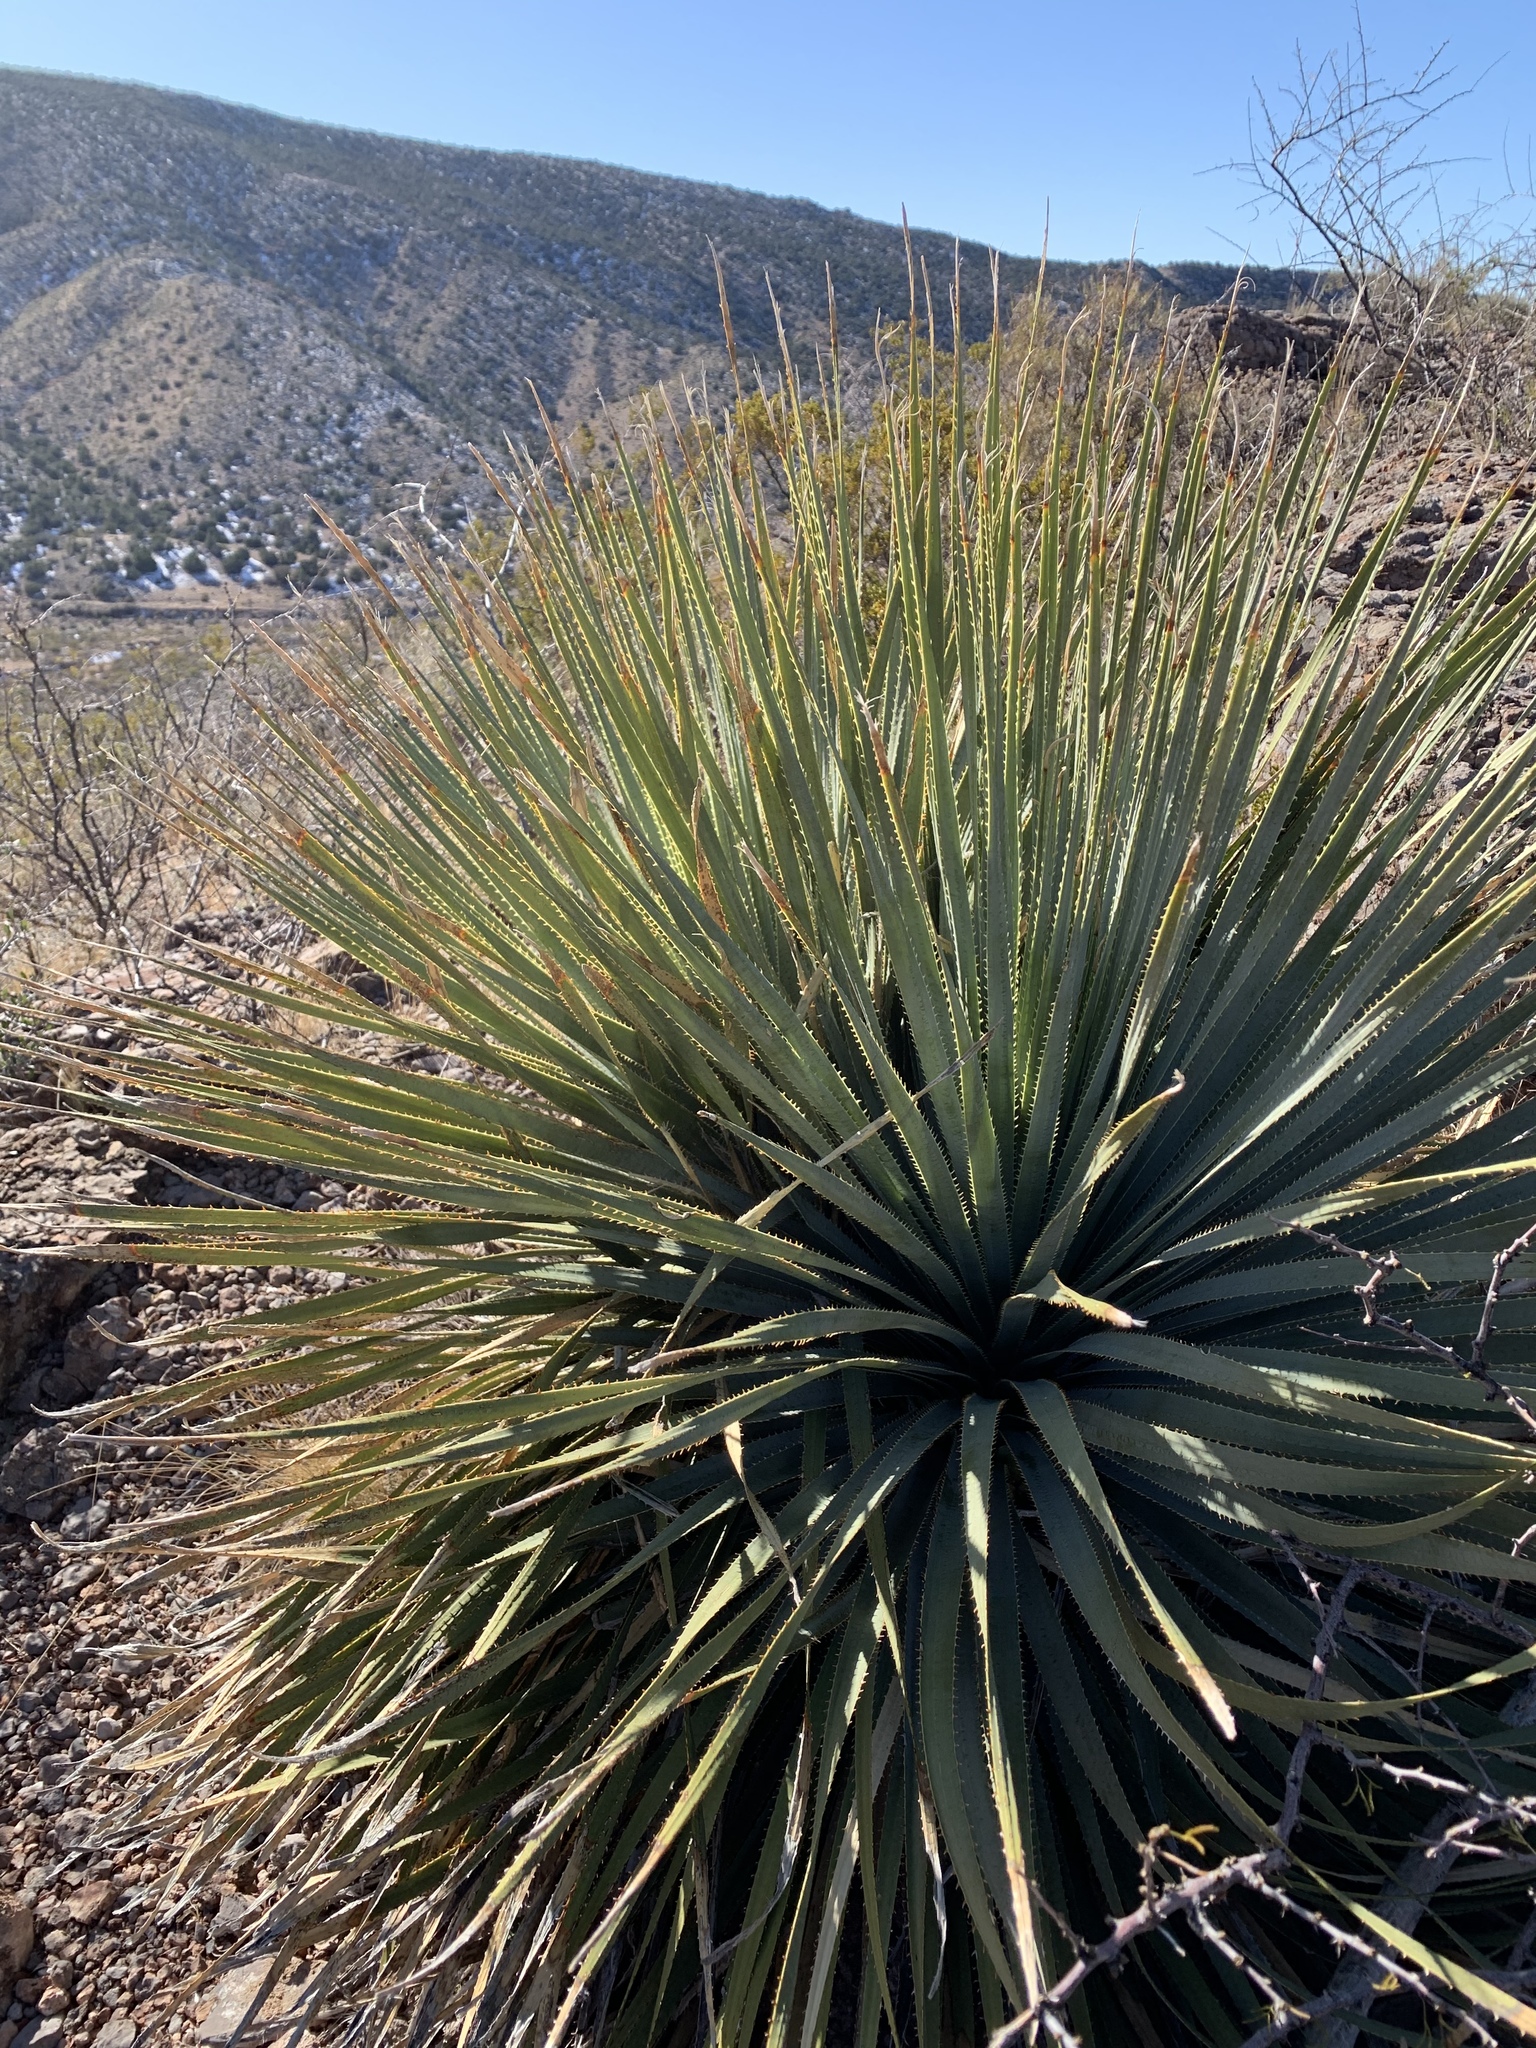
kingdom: Plantae
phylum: Tracheophyta
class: Liliopsida
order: Asparagales
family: Asparagaceae
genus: Dasylirion
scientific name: Dasylirion wheeleri
